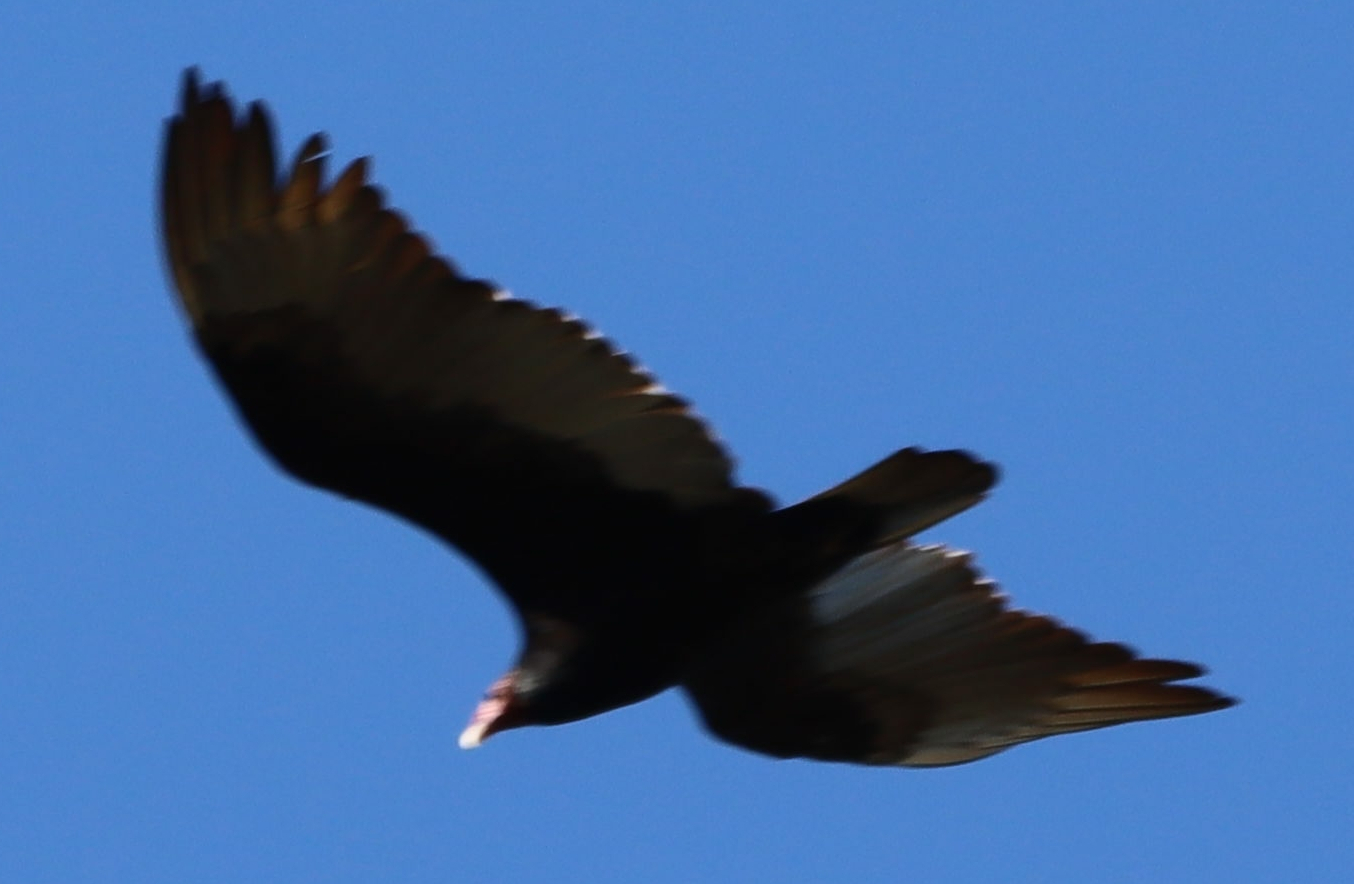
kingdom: Animalia
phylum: Chordata
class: Aves
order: Accipitriformes
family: Cathartidae
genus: Cathartes
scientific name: Cathartes aura
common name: Turkey vulture
